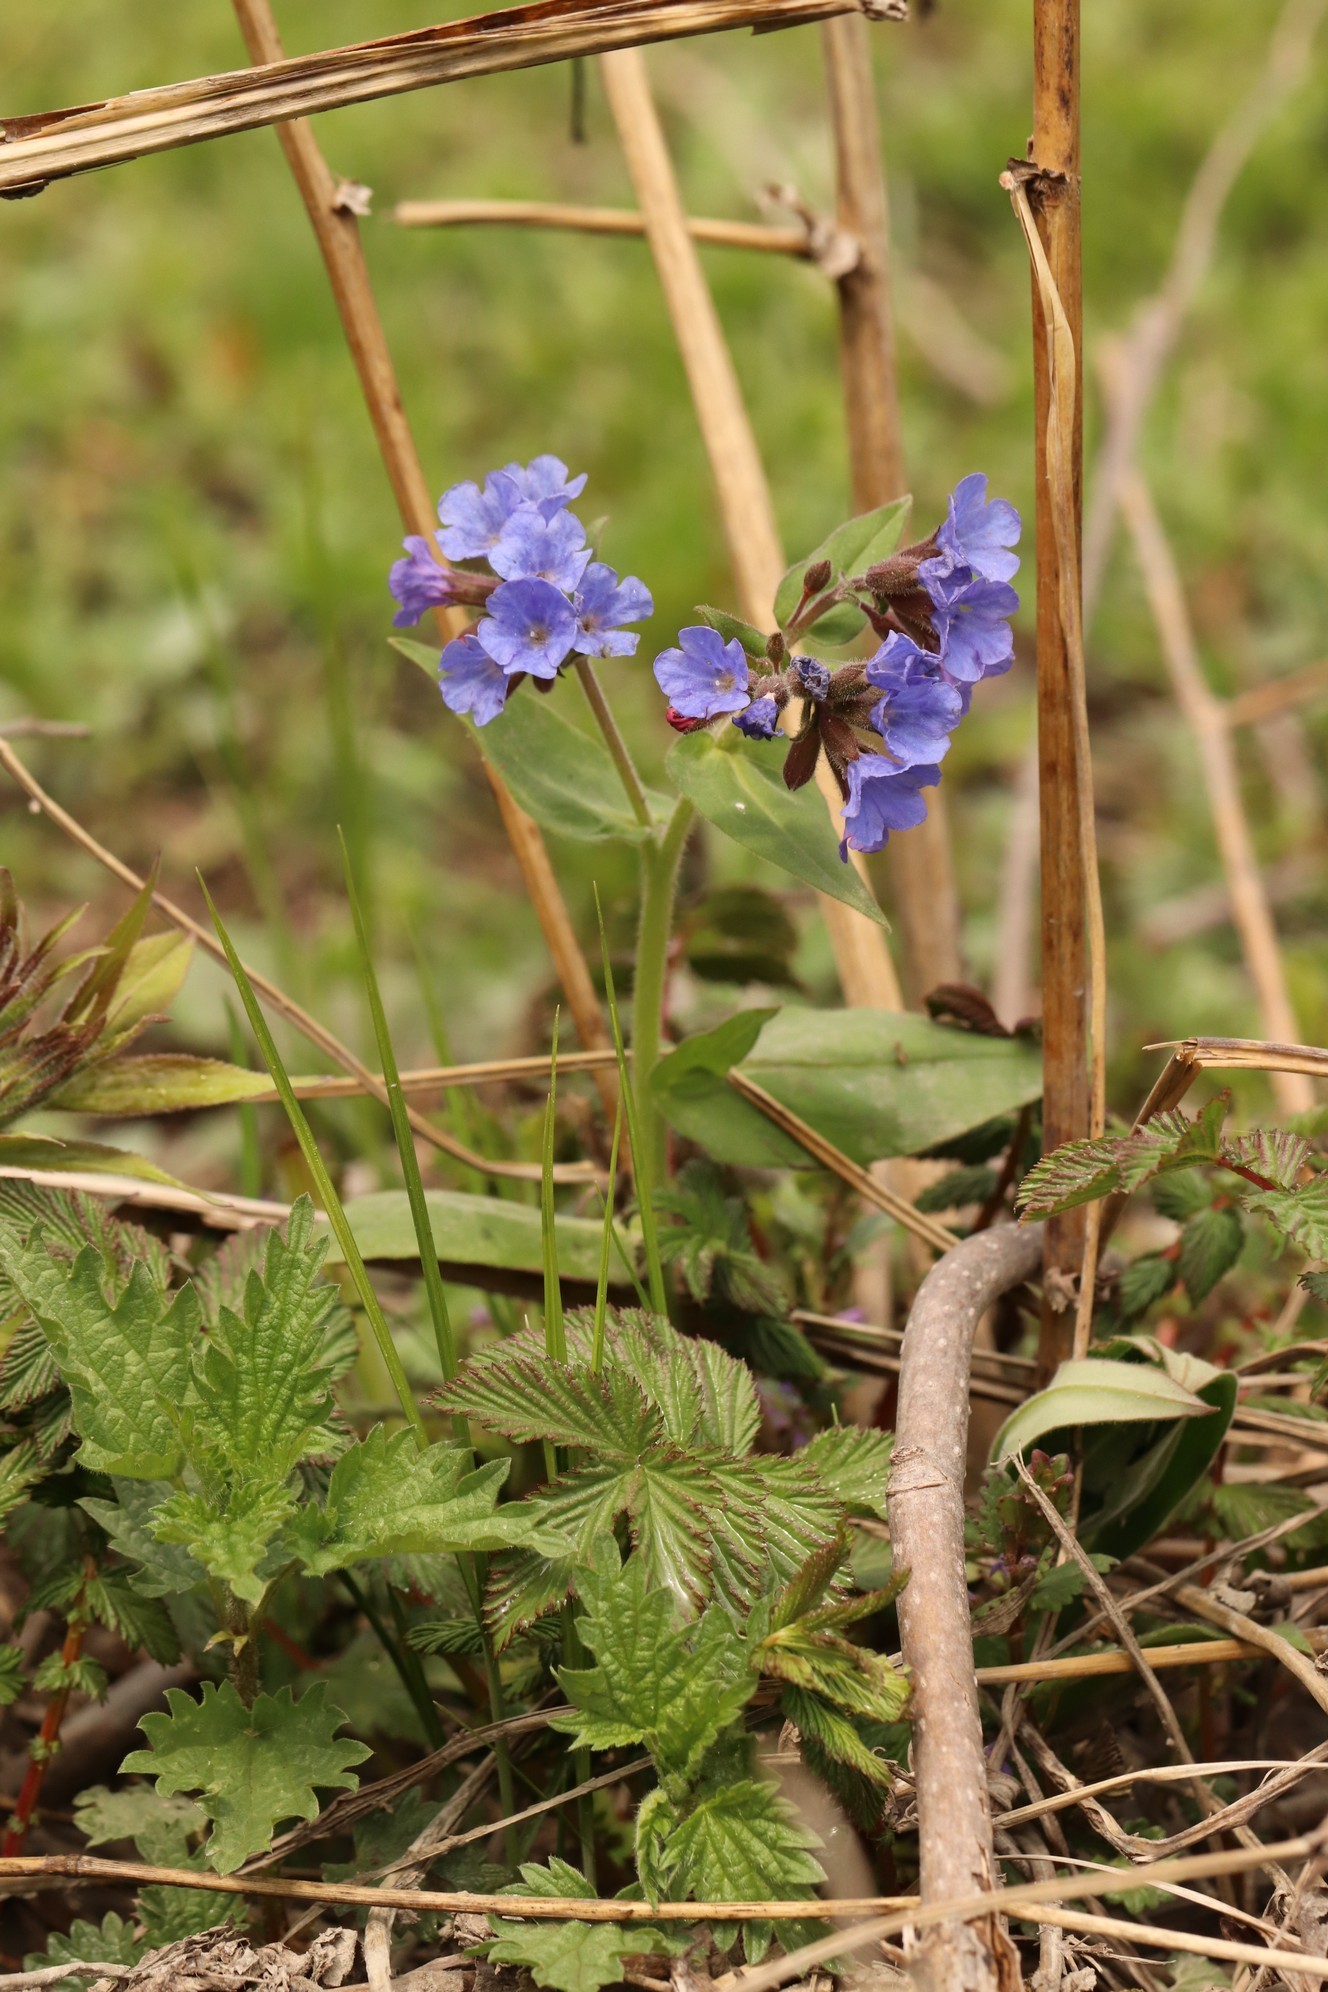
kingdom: Plantae
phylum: Tracheophyta
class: Magnoliopsida
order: Boraginales
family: Boraginaceae
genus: Pulmonaria
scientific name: Pulmonaria mollis
